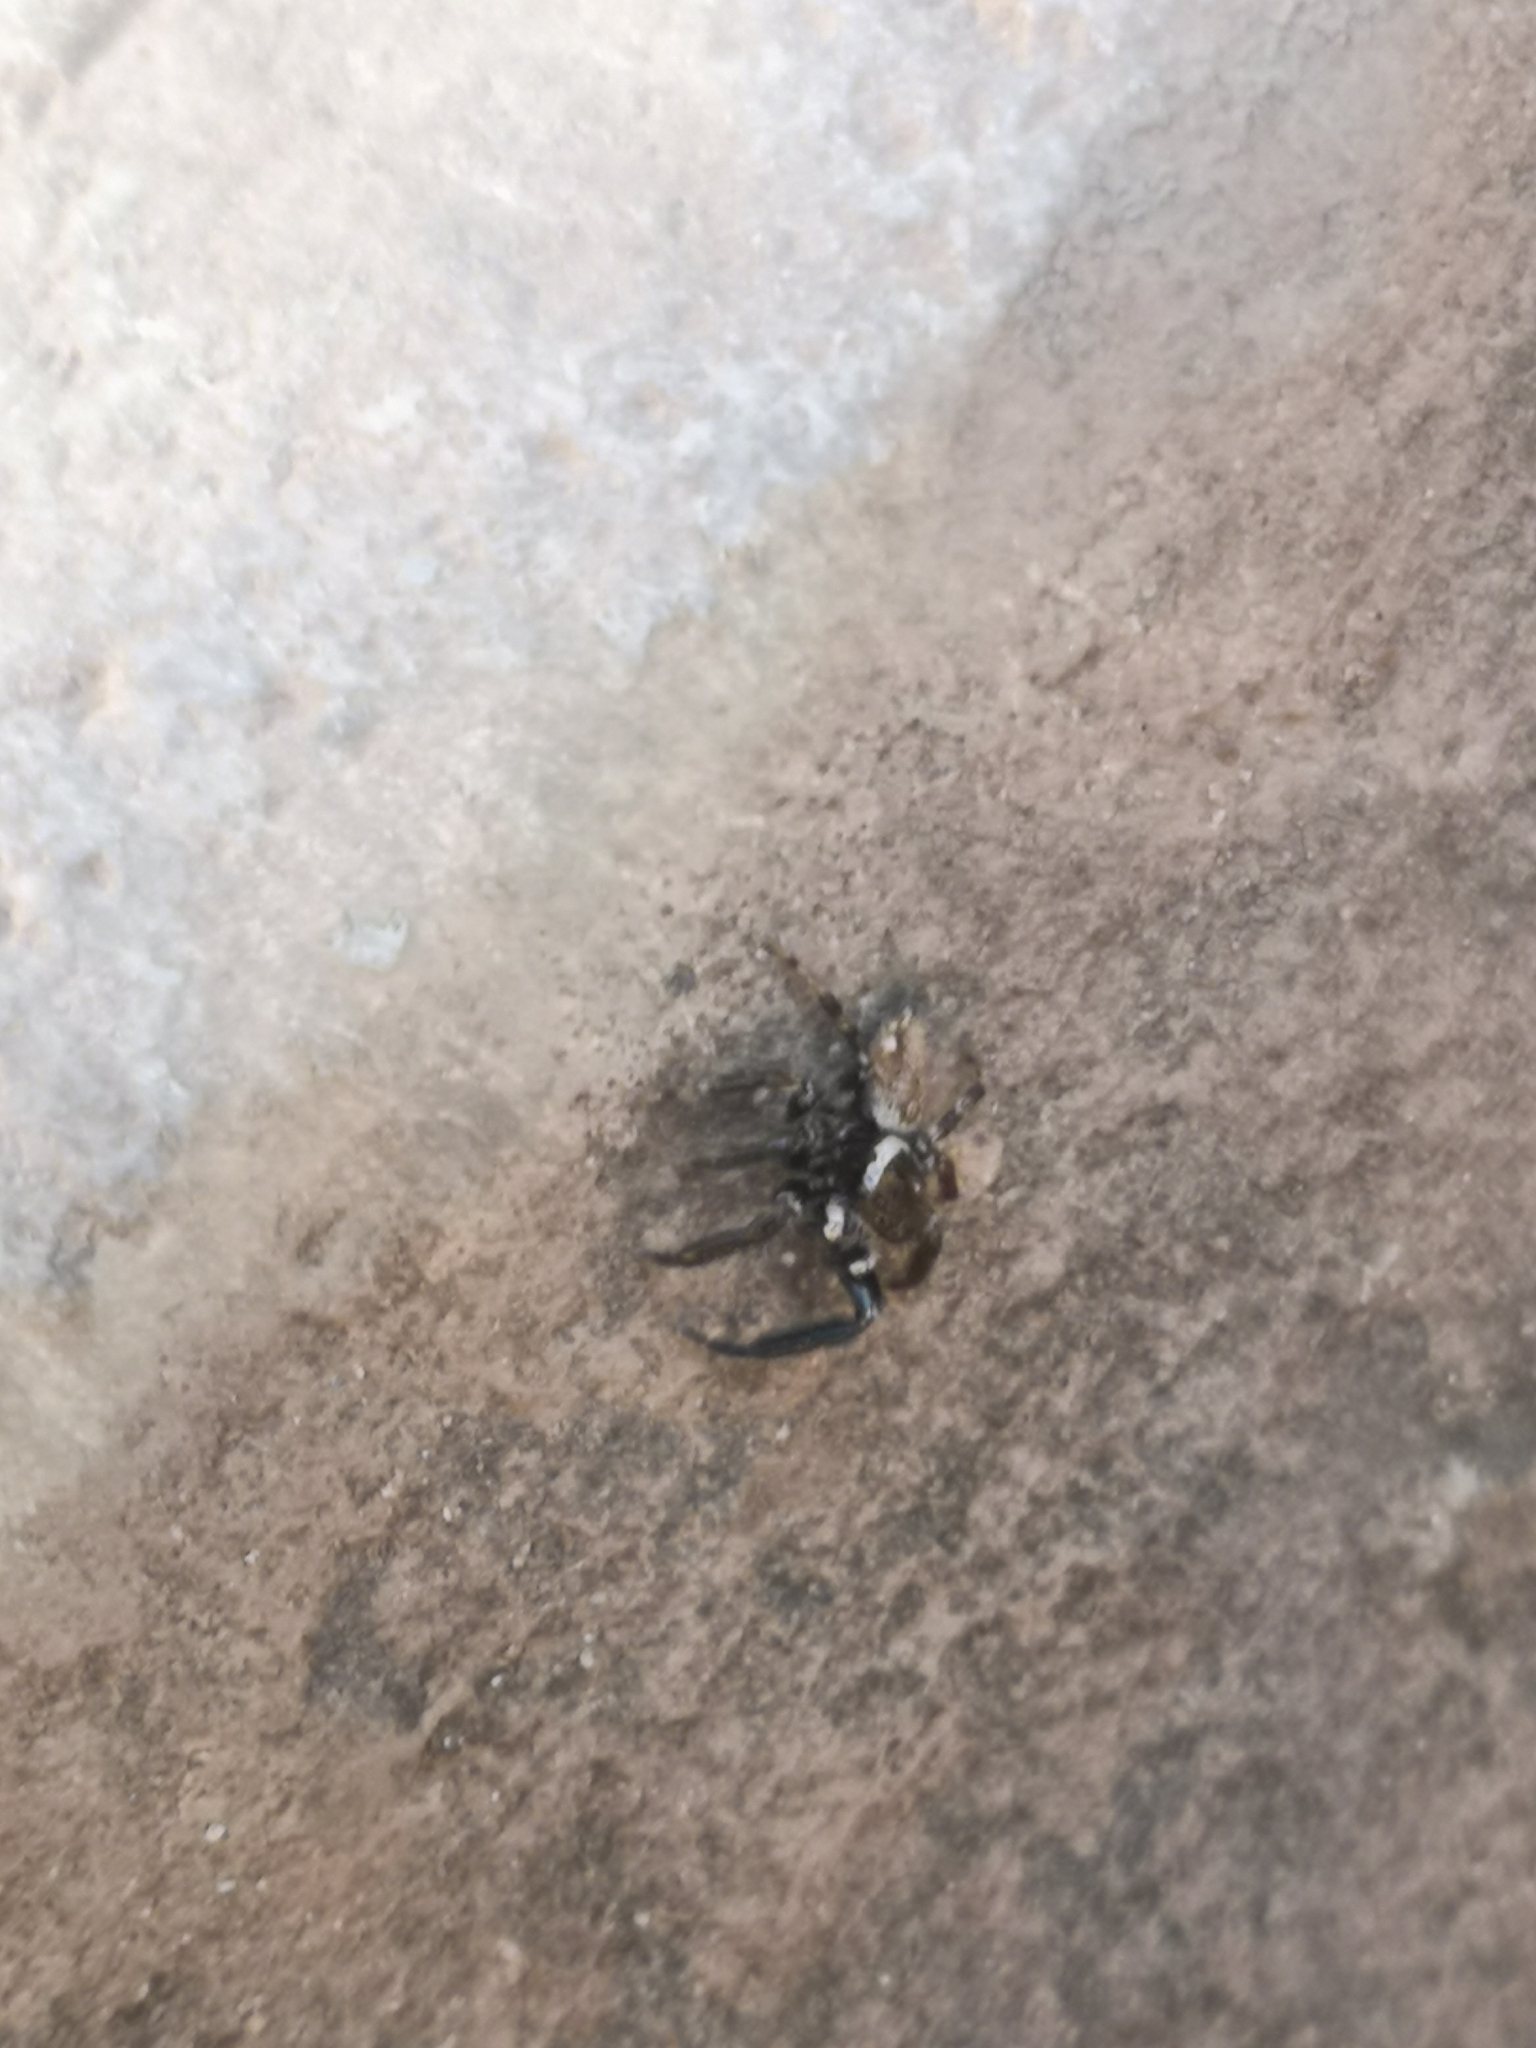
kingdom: Animalia
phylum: Arthropoda
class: Arachnida
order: Araneae
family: Salticidae
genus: Evarcha
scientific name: Evarcha jucunda
